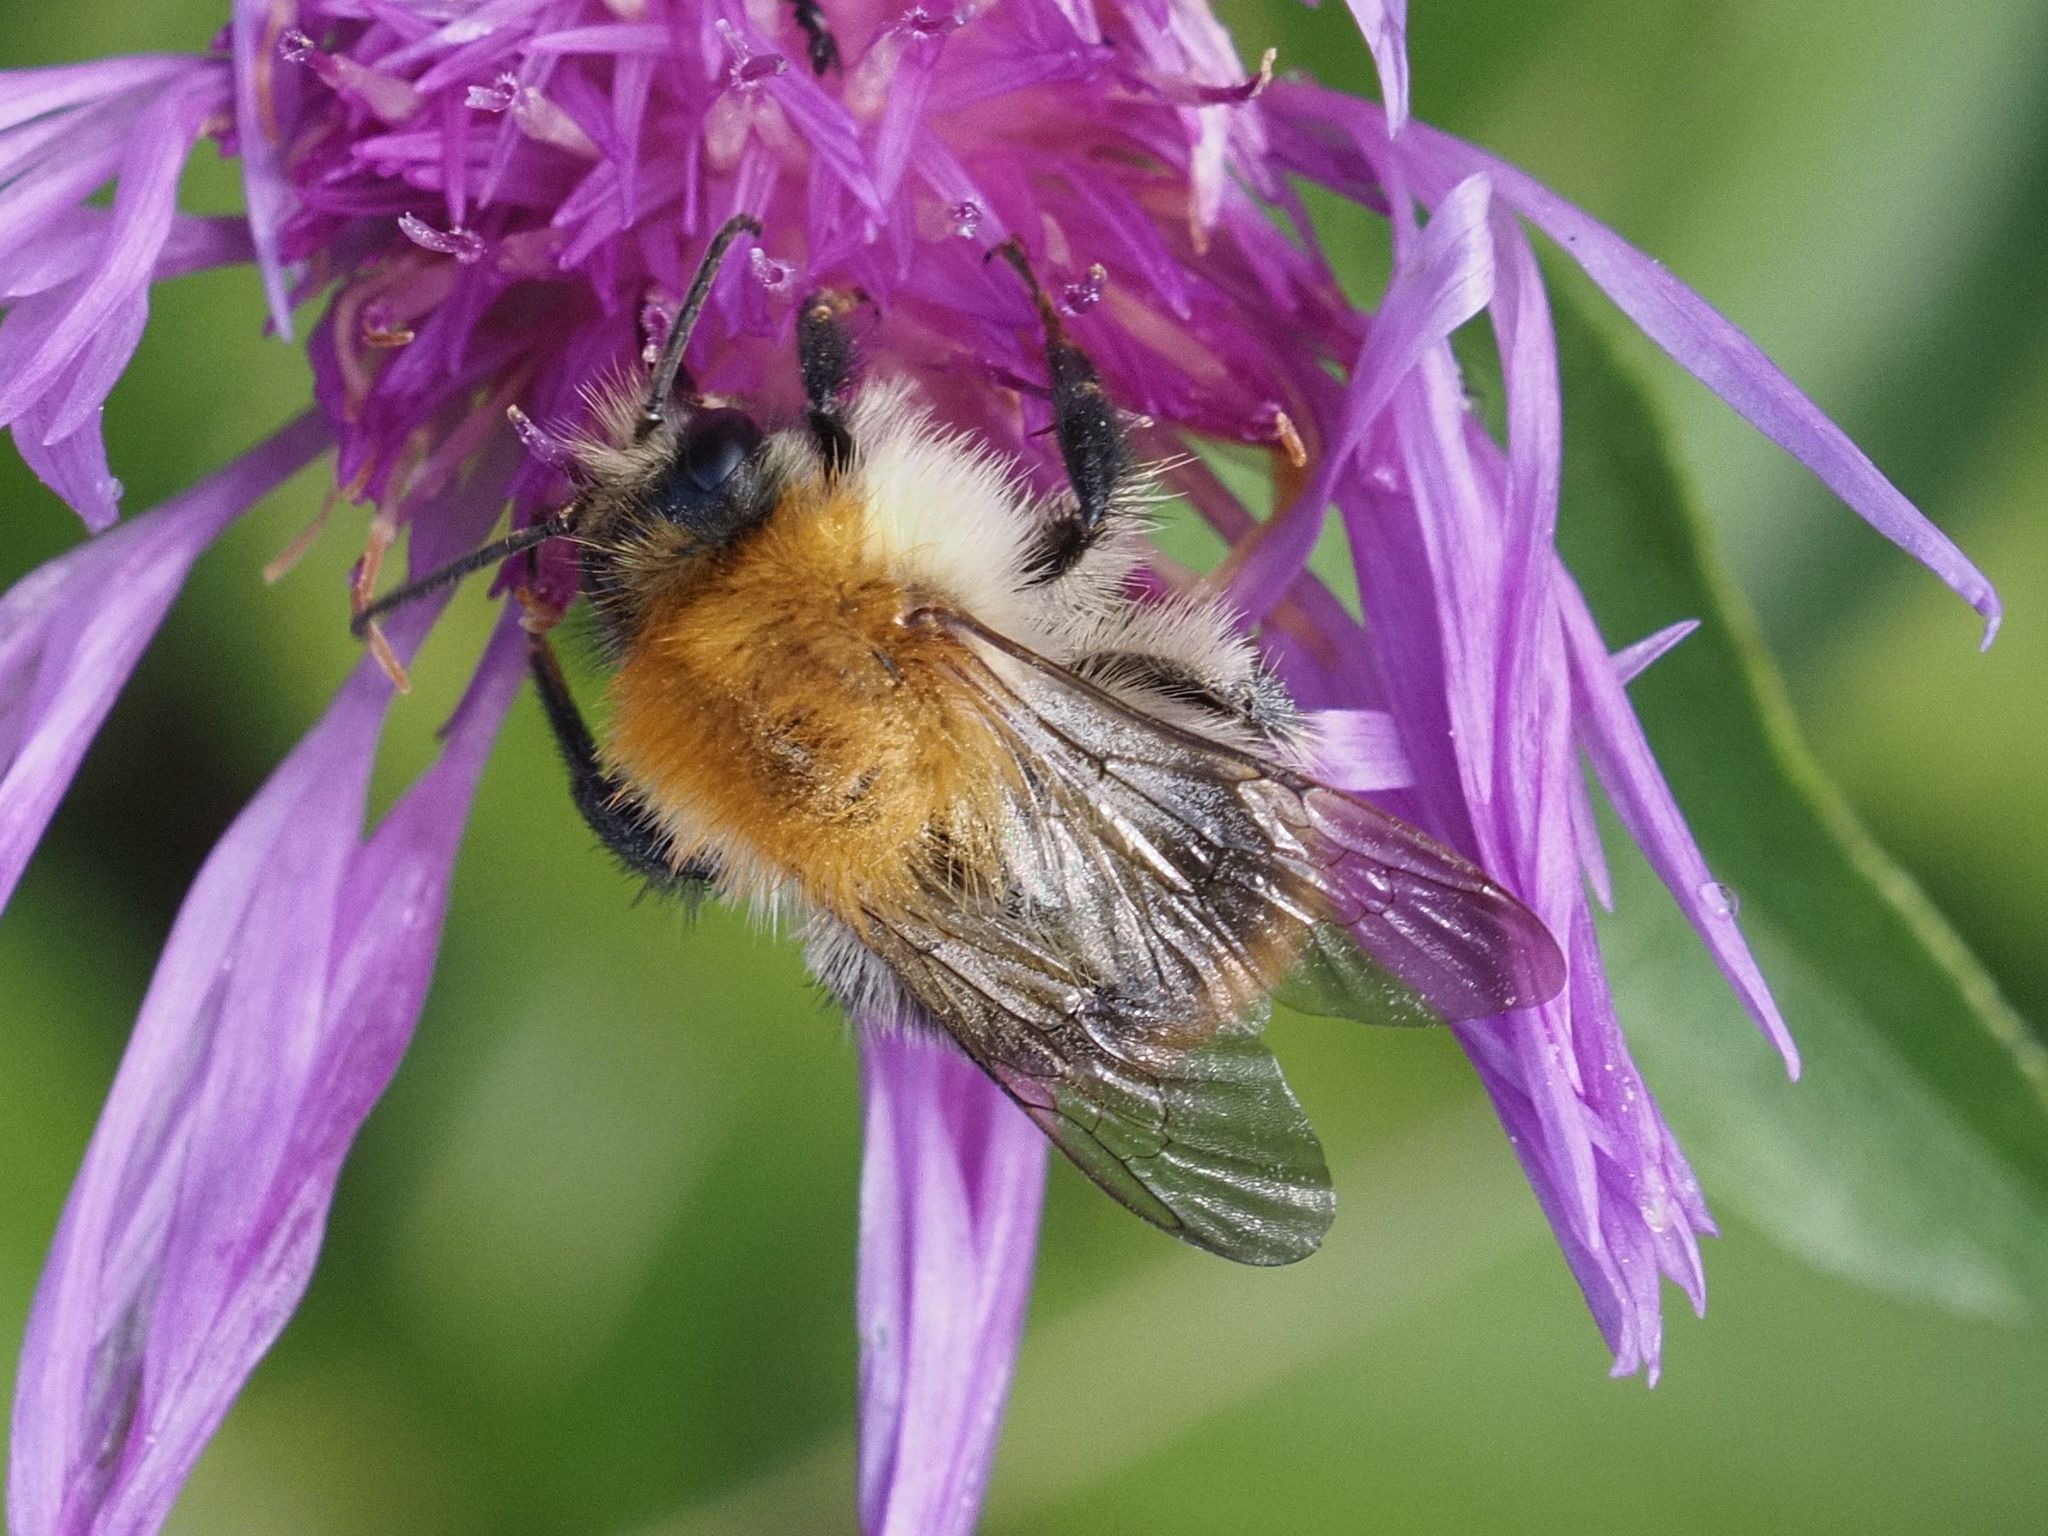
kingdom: Animalia
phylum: Arthropoda
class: Insecta
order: Hymenoptera
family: Apidae
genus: Bombus
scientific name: Bombus pascuorum
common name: Common carder bee
